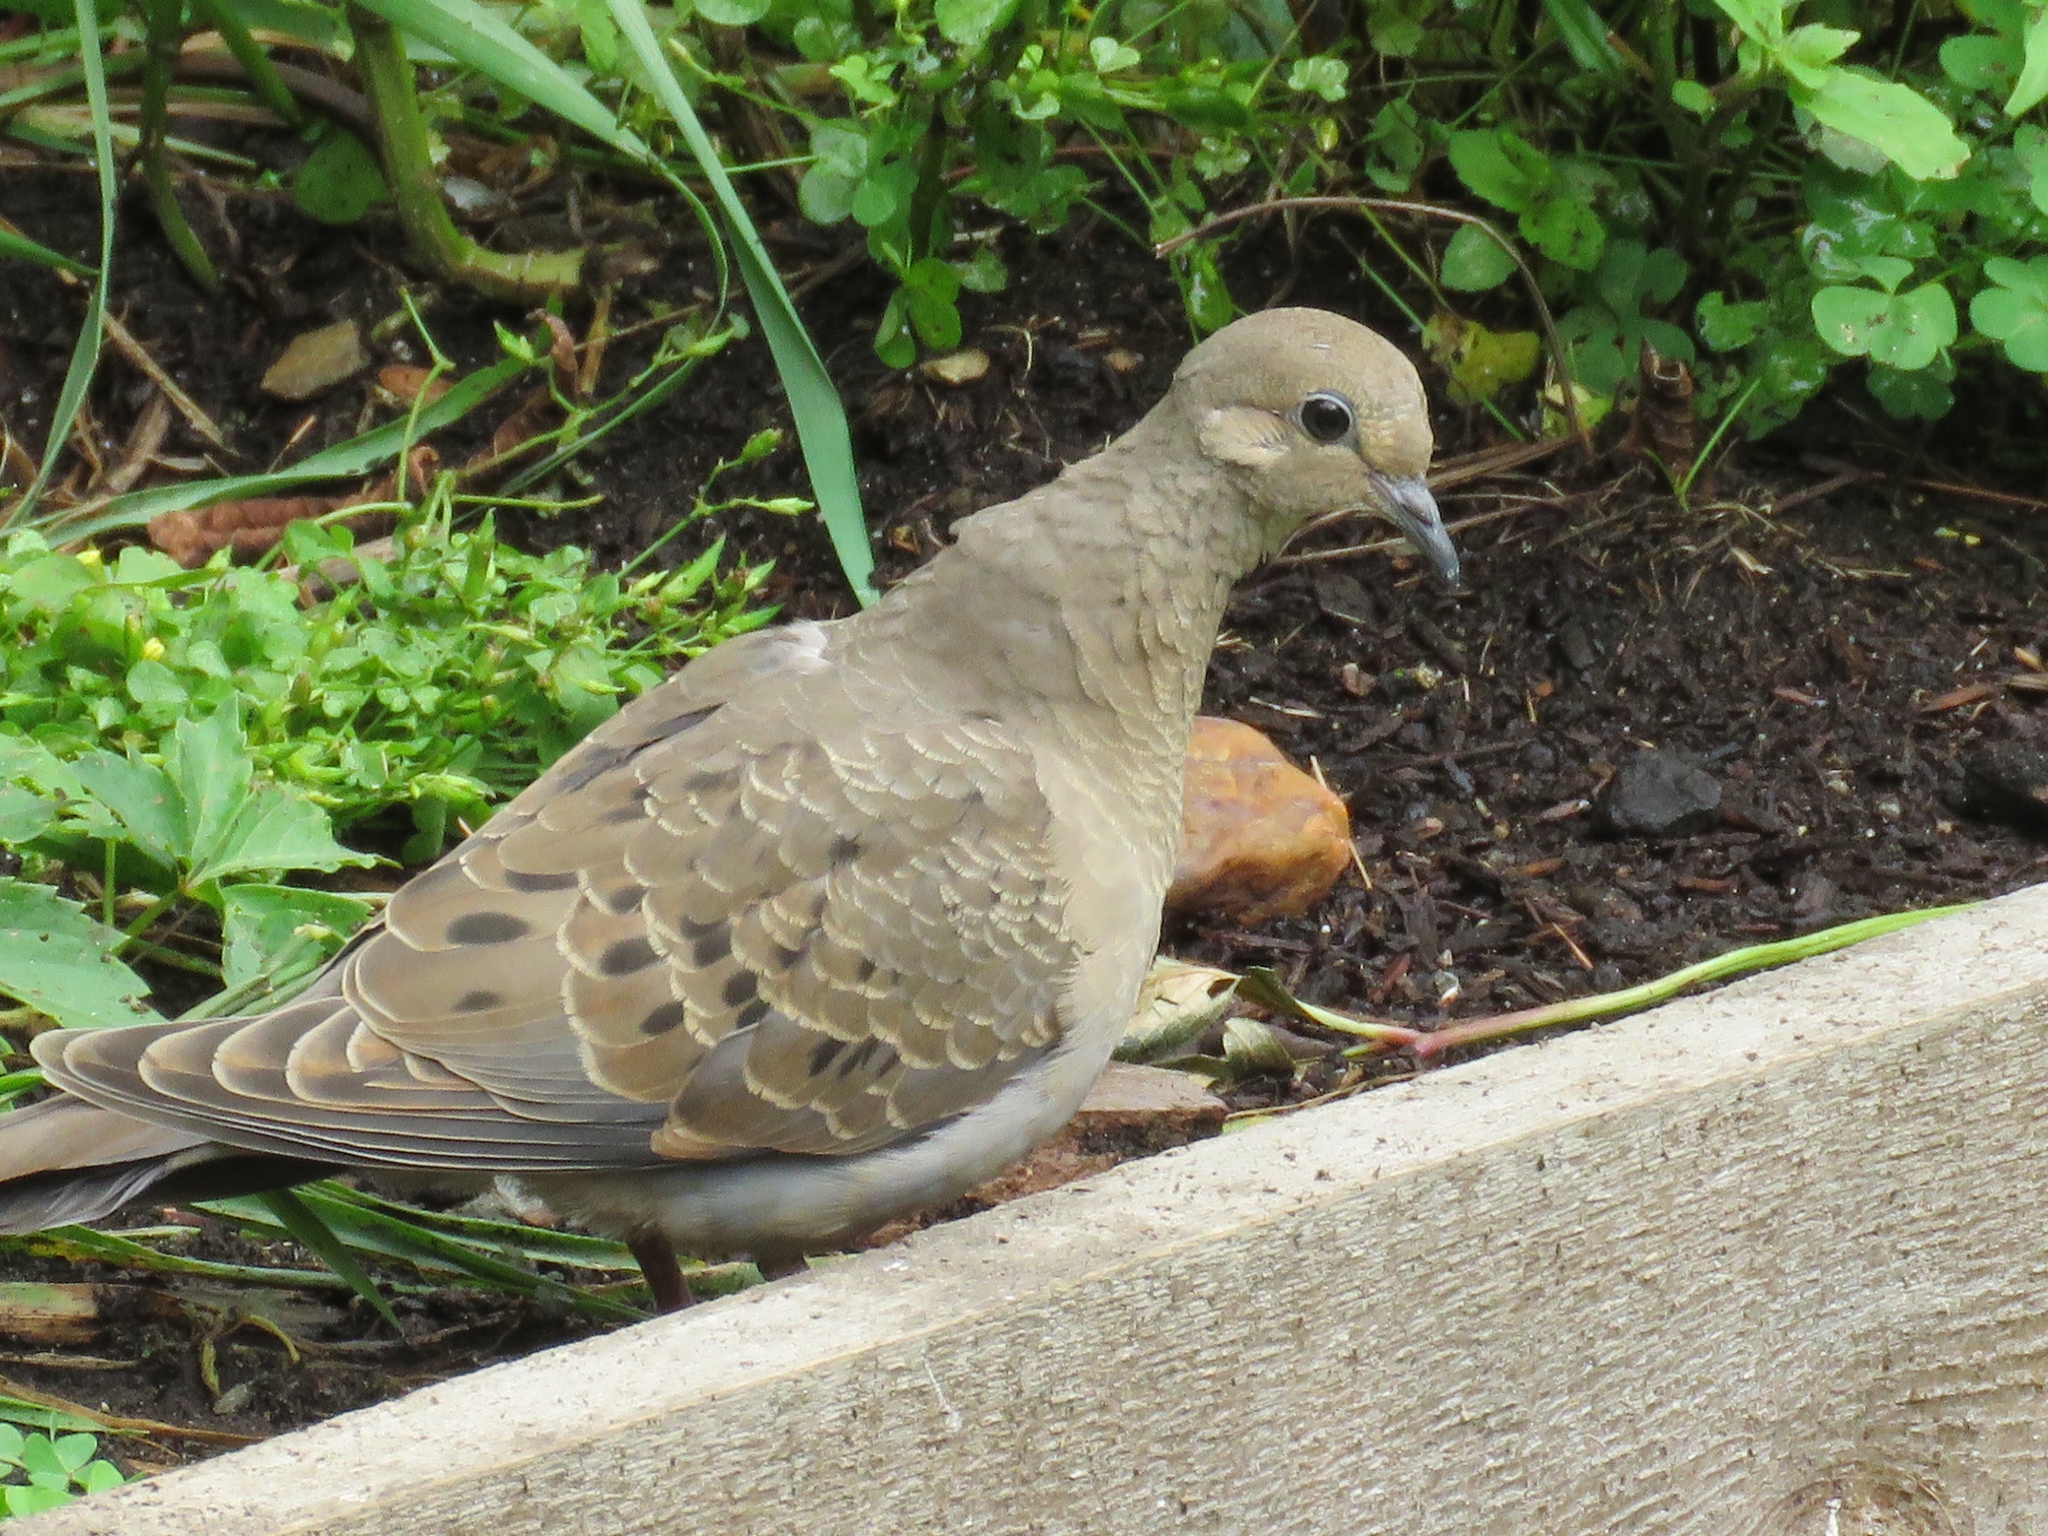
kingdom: Animalia
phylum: Chordata
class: Aves
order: Columbiformes
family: Columbidae
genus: Zenaida
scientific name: Zenaida macroura
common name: Mourning dove
